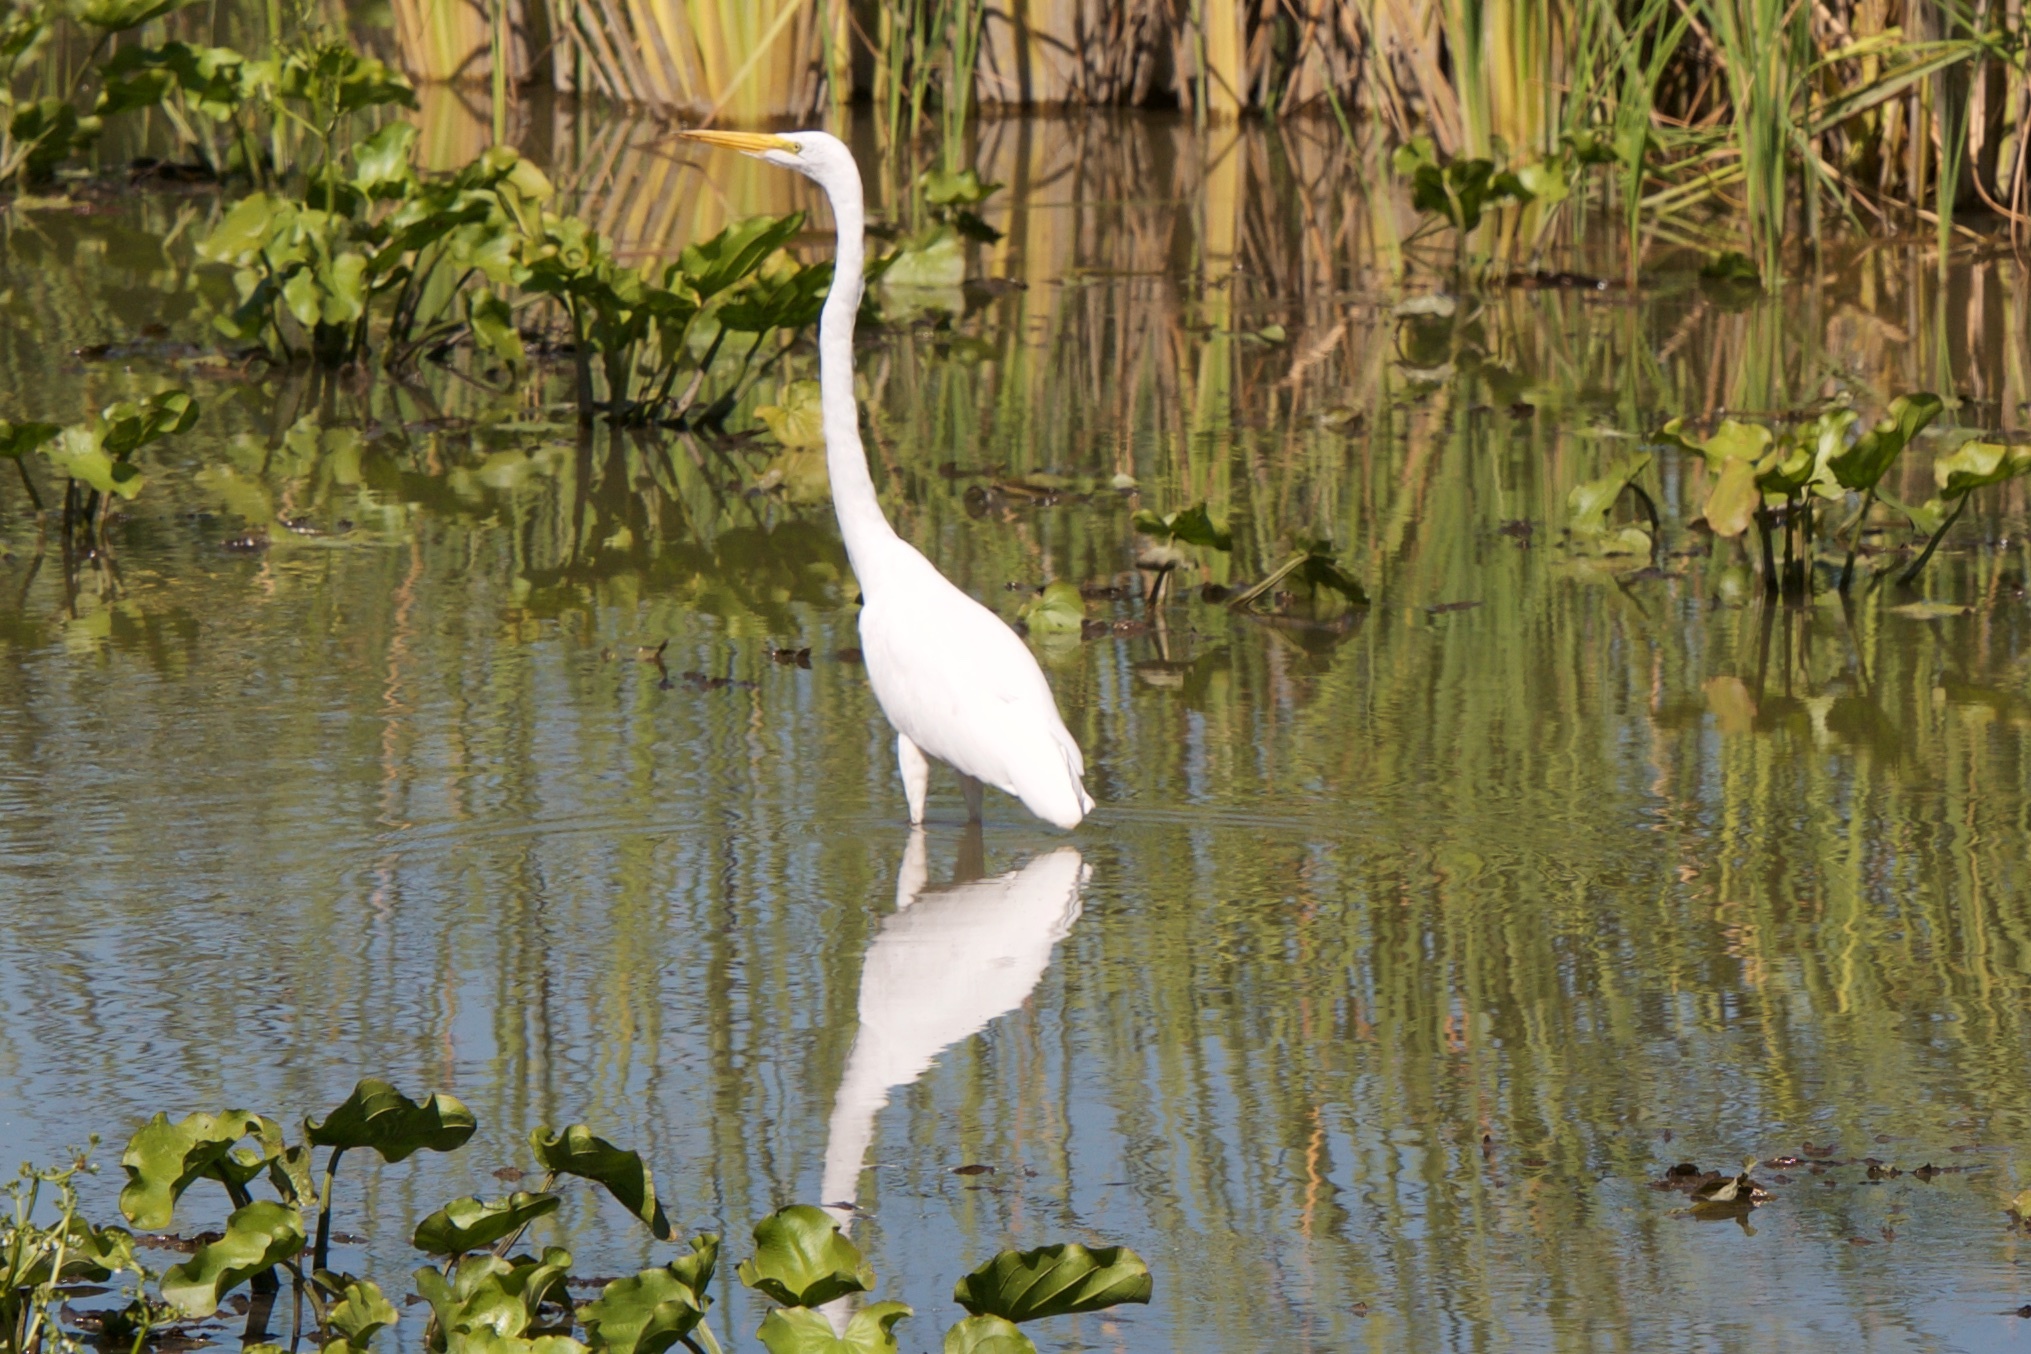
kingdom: Animalia
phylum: Chordata
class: Aves
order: Pelecaniformes
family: Ardeidae
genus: Ardea
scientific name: Ardea alba
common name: Great egret
